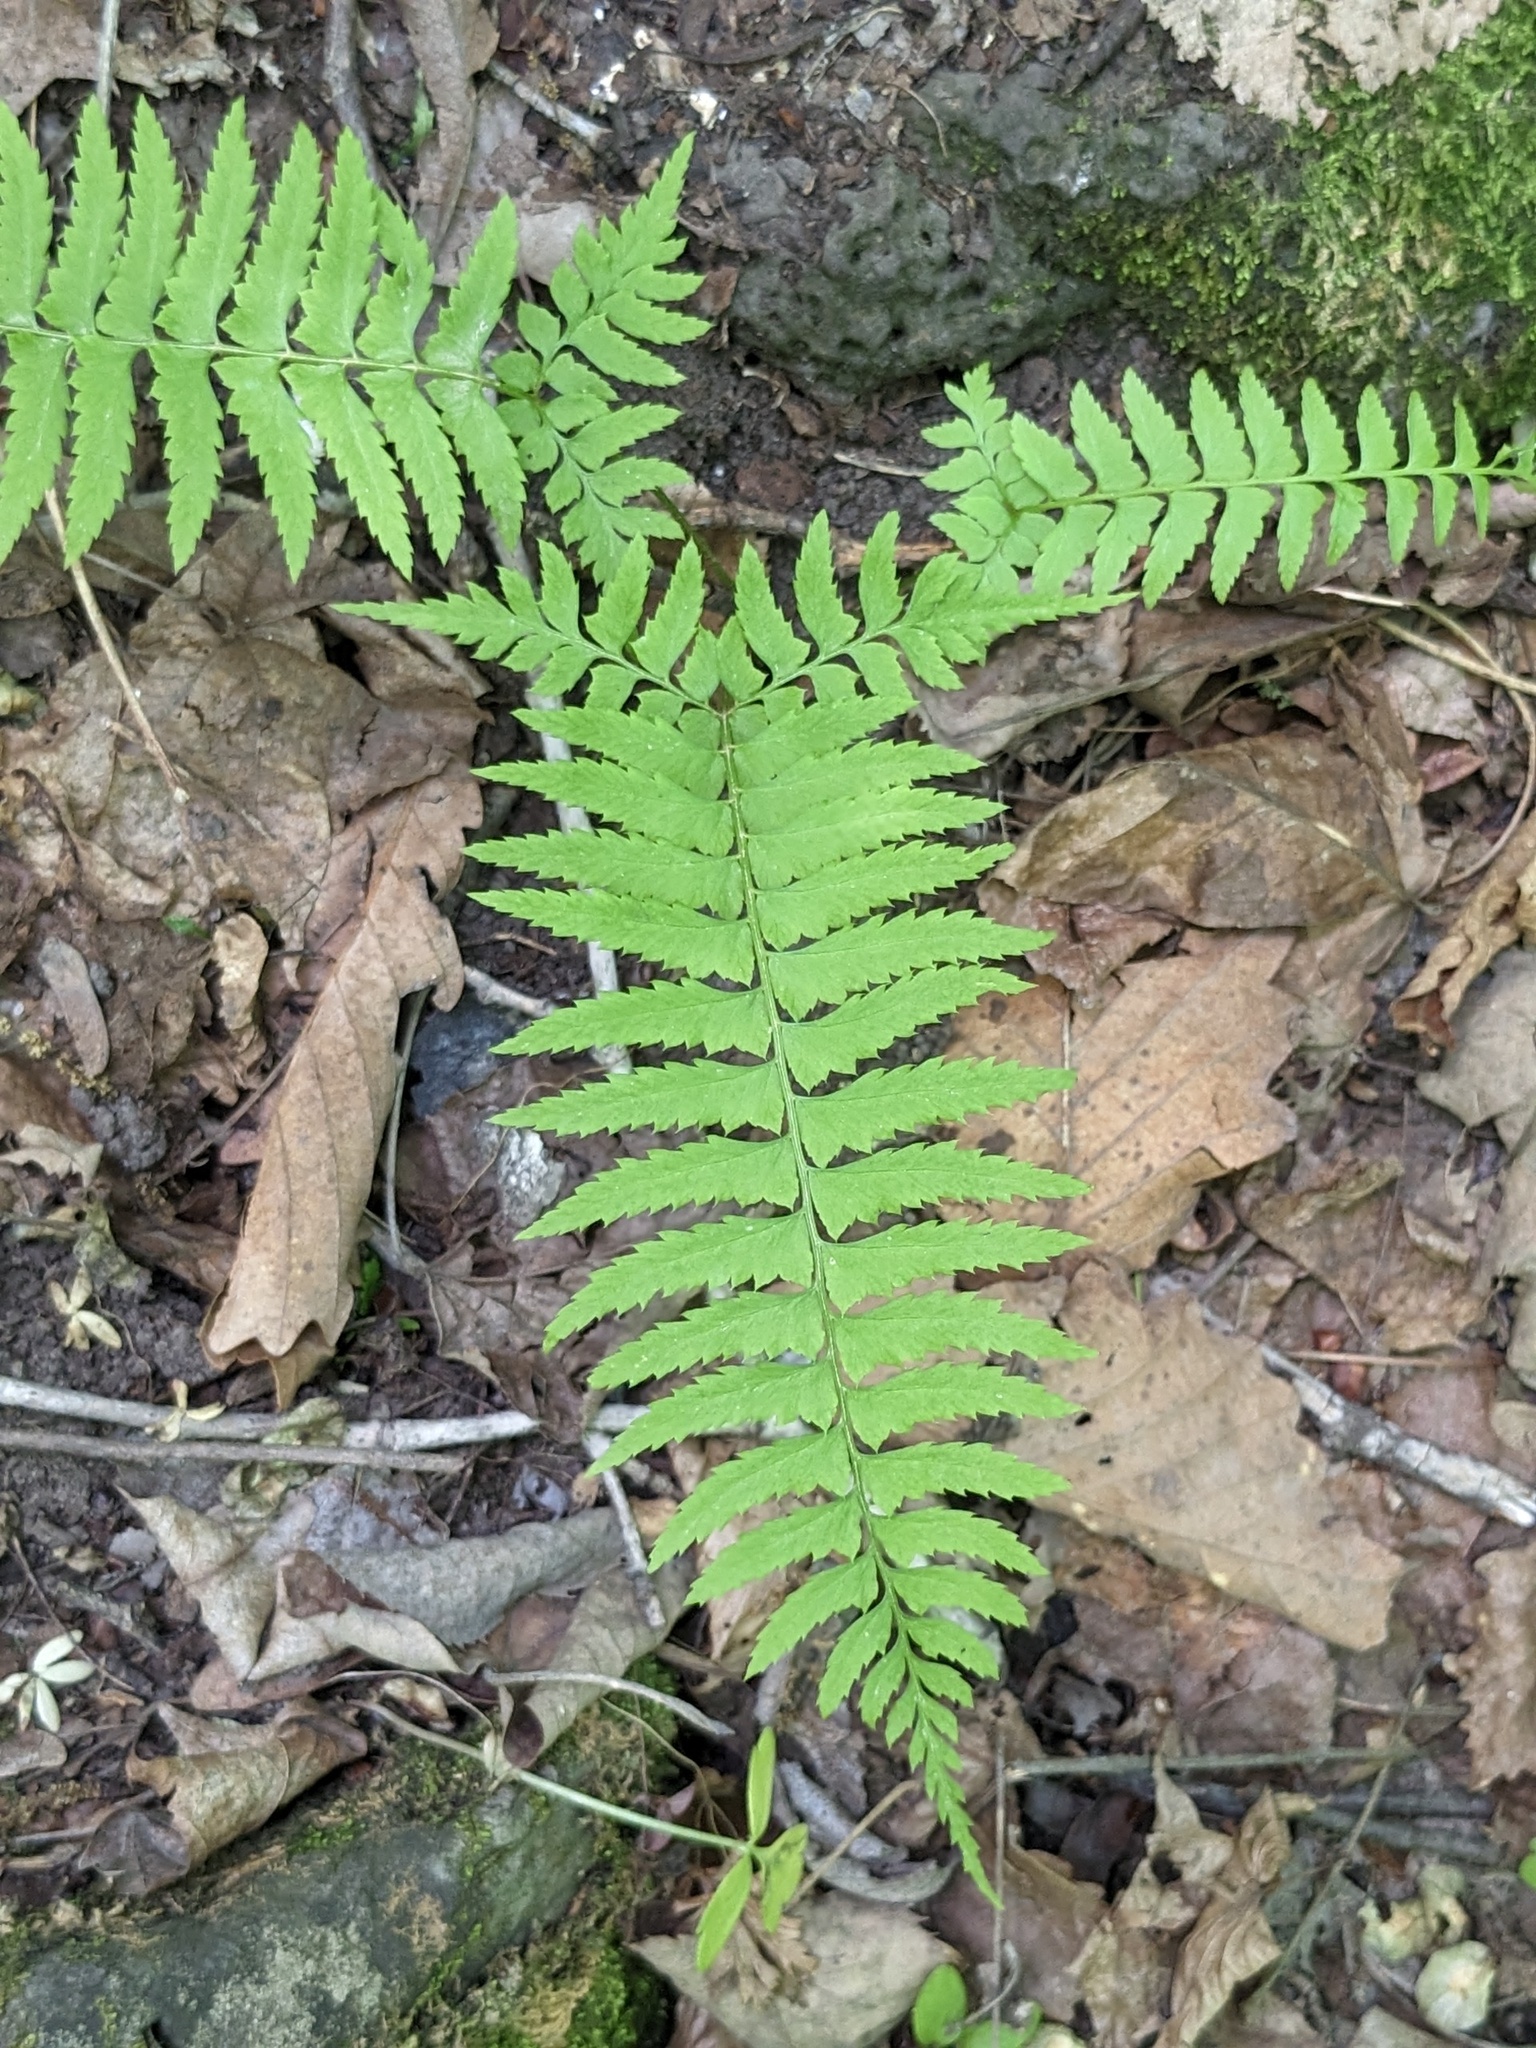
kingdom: Plantae
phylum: Tracheophyta
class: Polypodiopsida
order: Polypodiales
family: Dryopteridaceae
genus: Polystichum
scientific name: Polystichum tripteron
